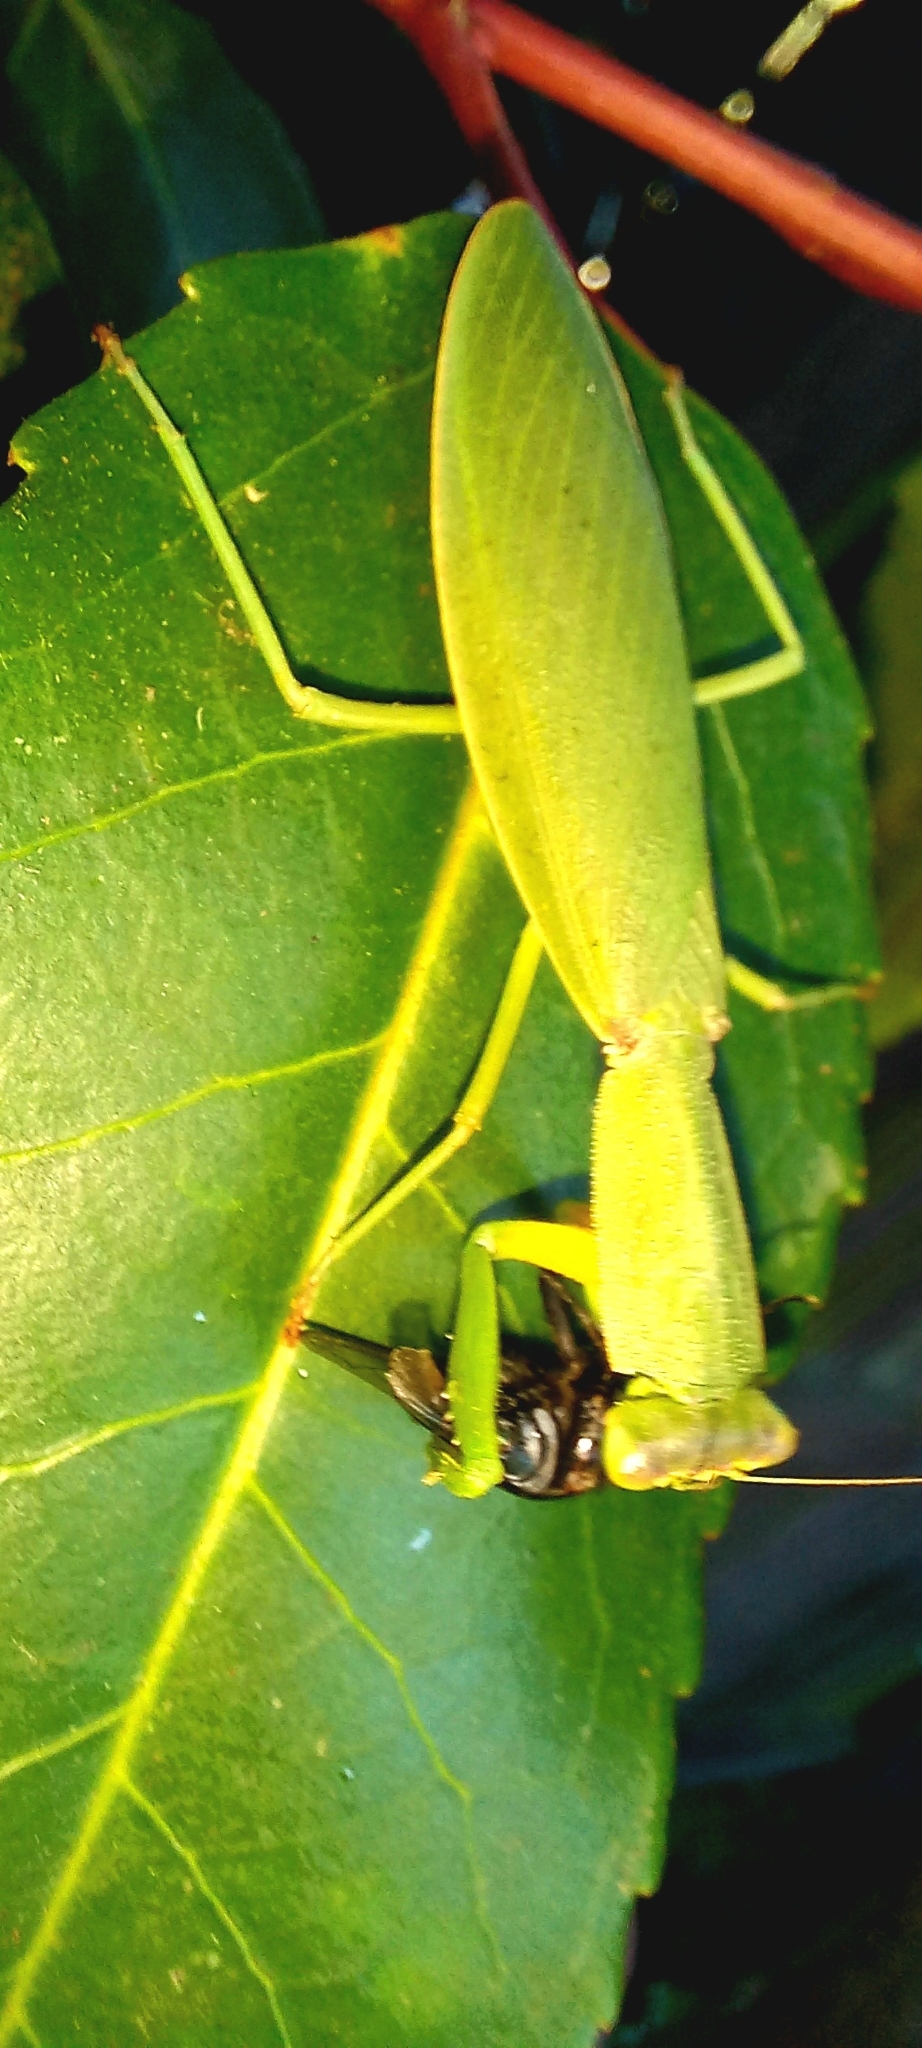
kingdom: Animalia
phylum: Arthropoda
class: Insecta
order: Mantodea
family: Mantidae
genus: Orthodera
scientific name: Orthodera novaezealandiae
